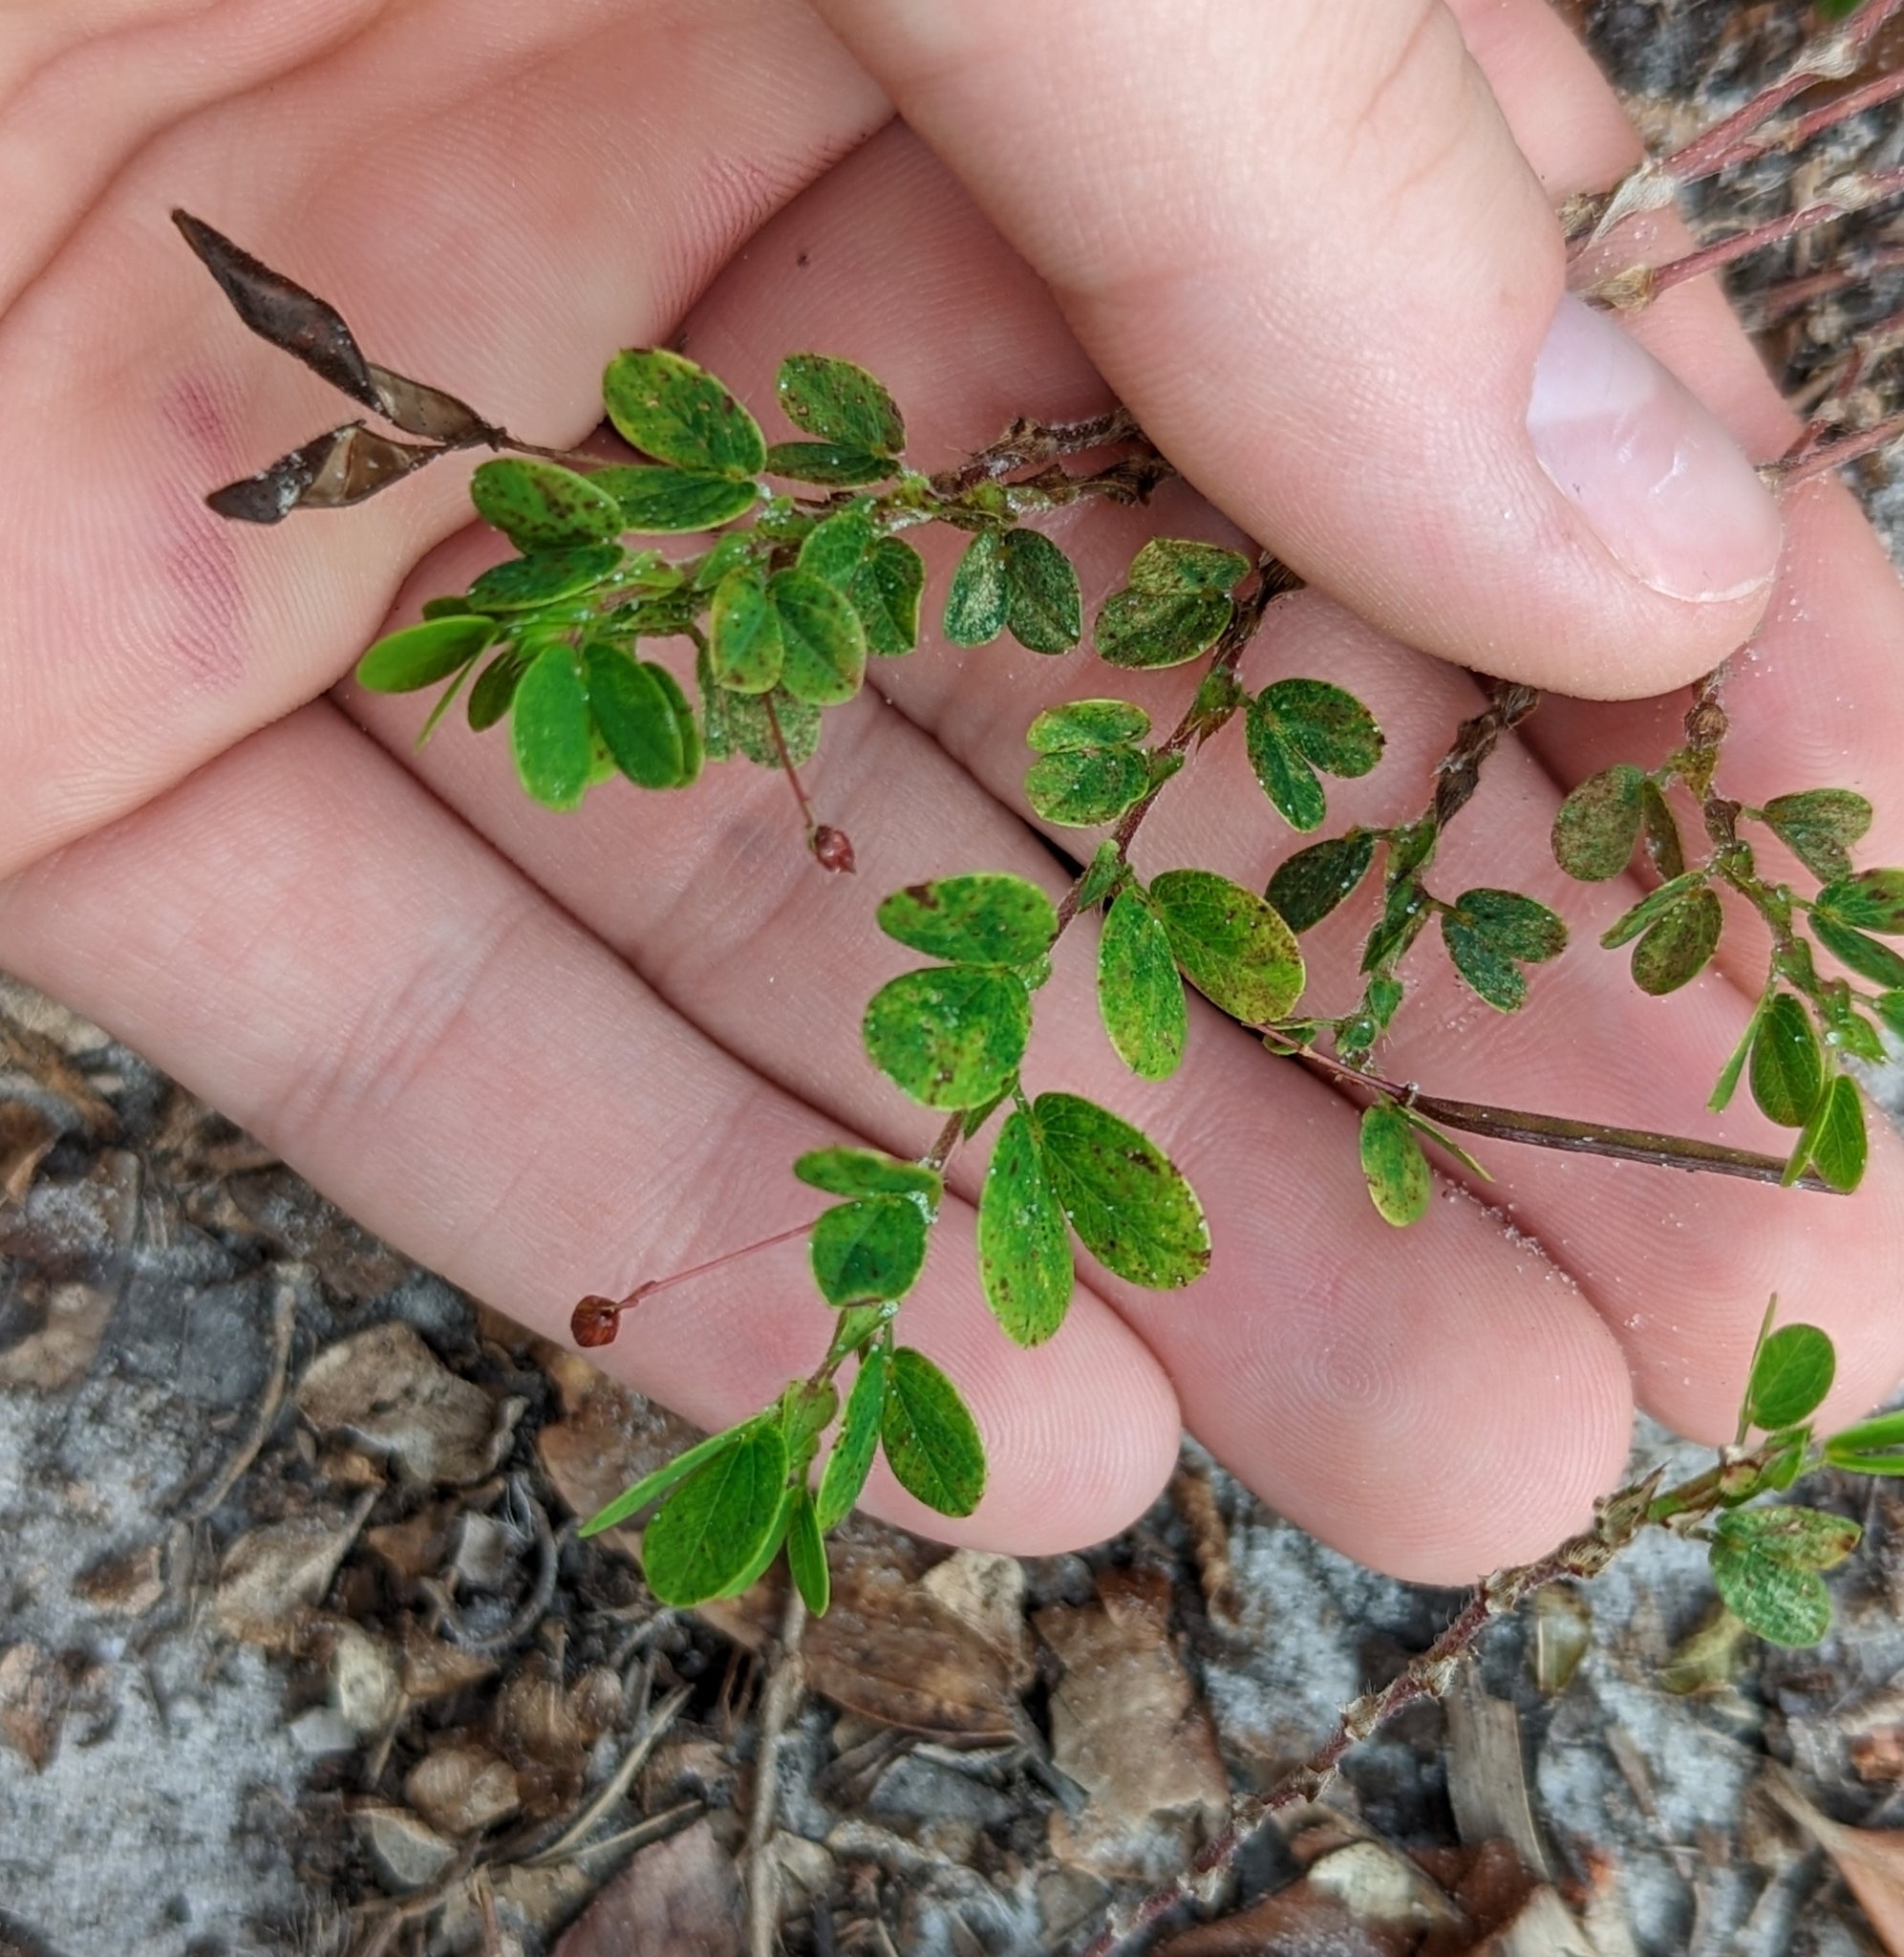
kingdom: Plantae
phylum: Tracheophyta
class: Magnoliopsida
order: Fabales
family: Fabaceae
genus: Chamaecrista
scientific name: Chamaecrista rotundifolia
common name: Round-leaf cassia
